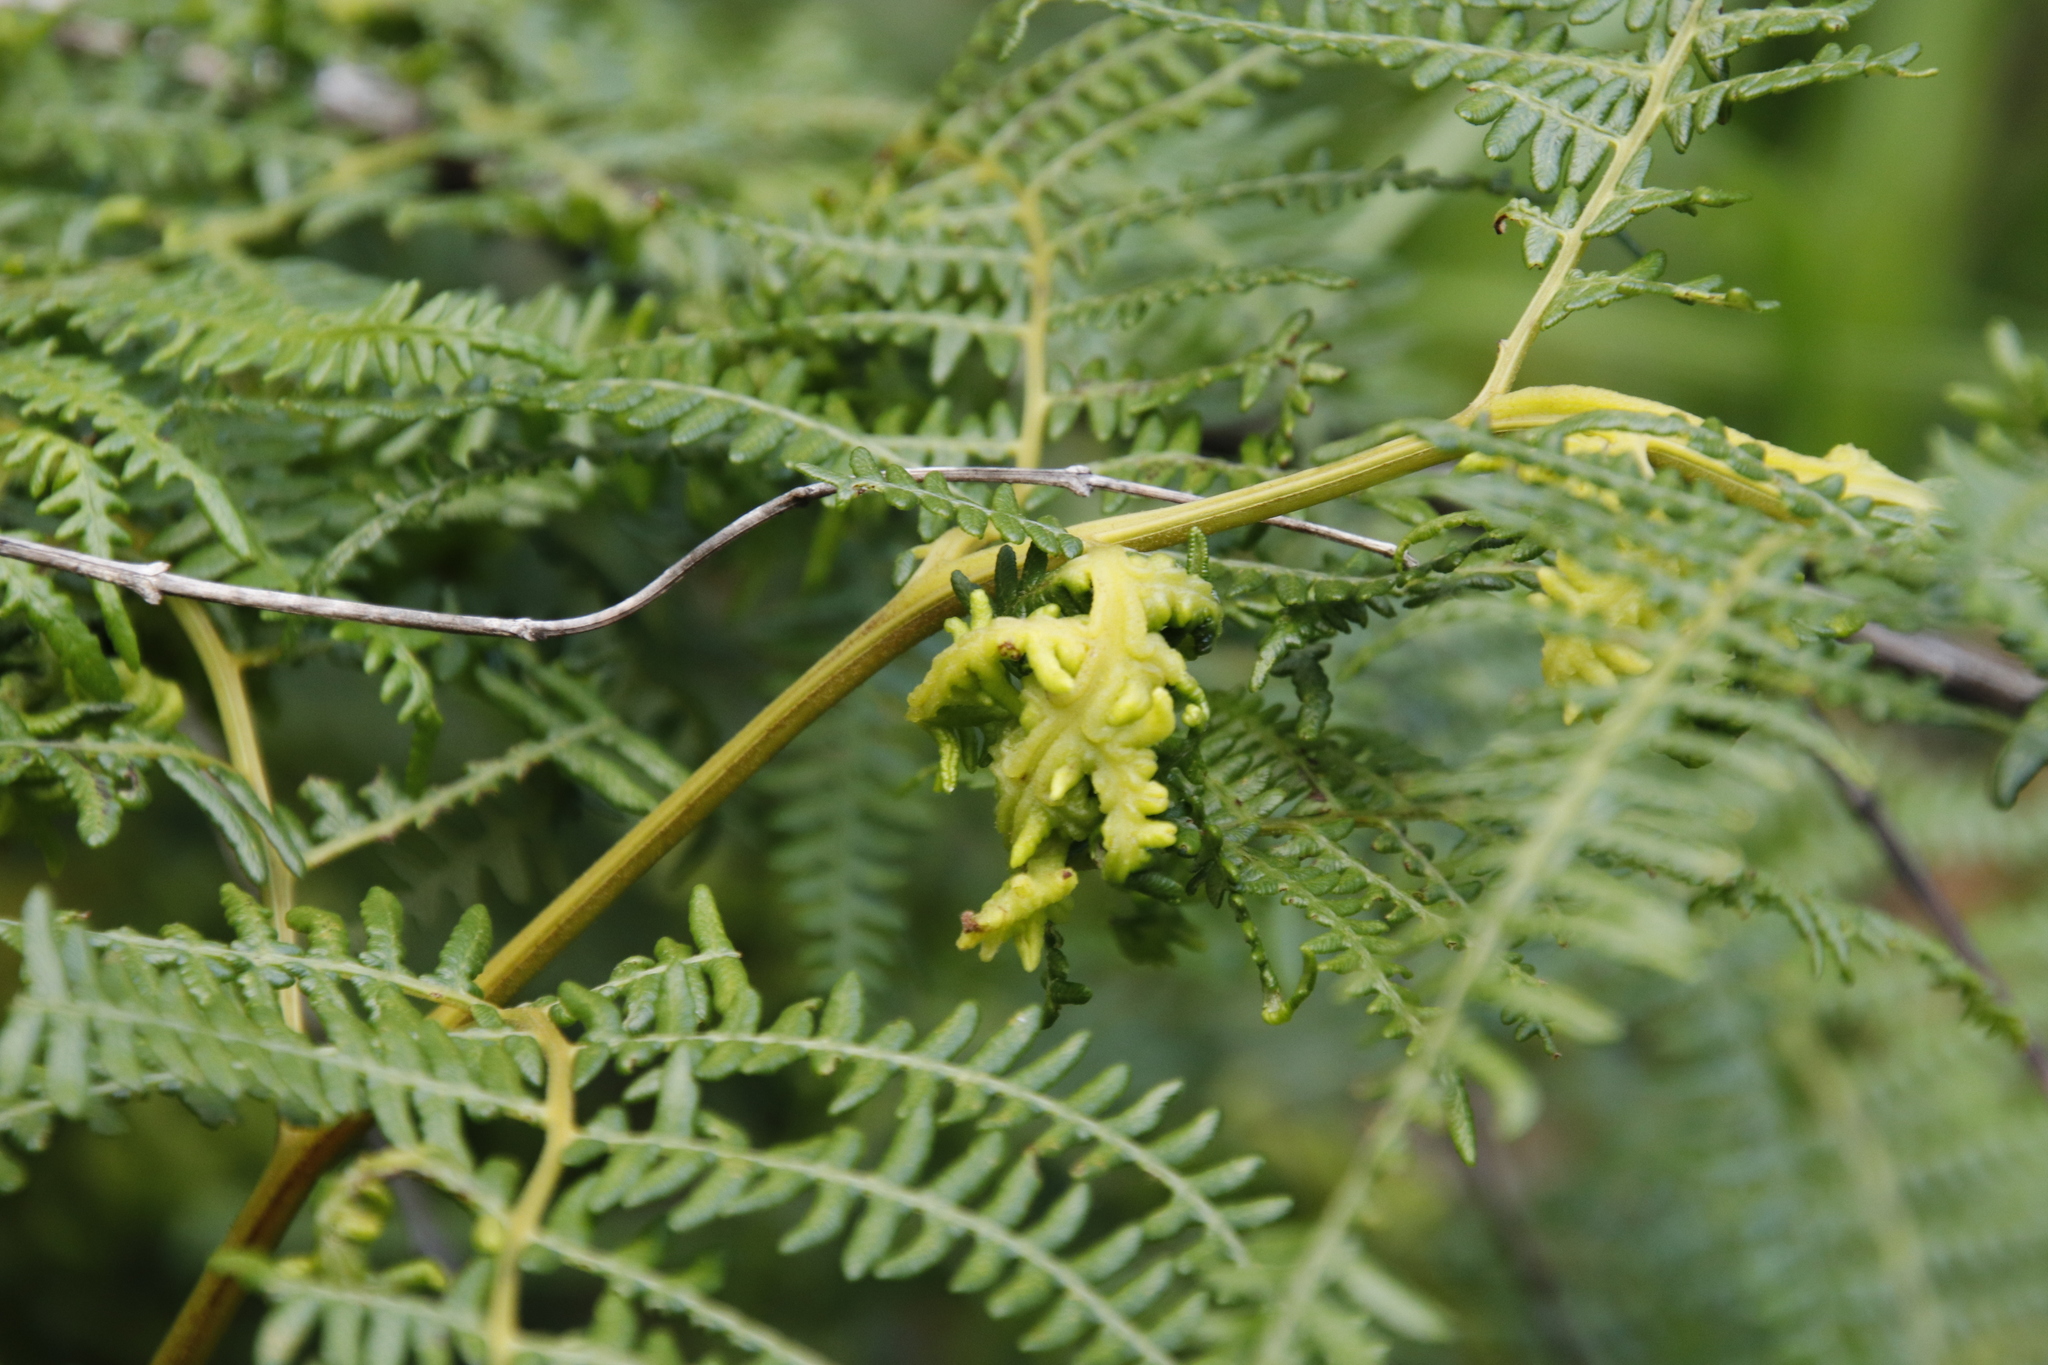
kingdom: Plantae
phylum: Tracheophyta
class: Polypodiopsida
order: Polypodiales
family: Dennstaedtiaceae
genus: Pteridium
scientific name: Pteridium aquilinum
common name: Bracken
